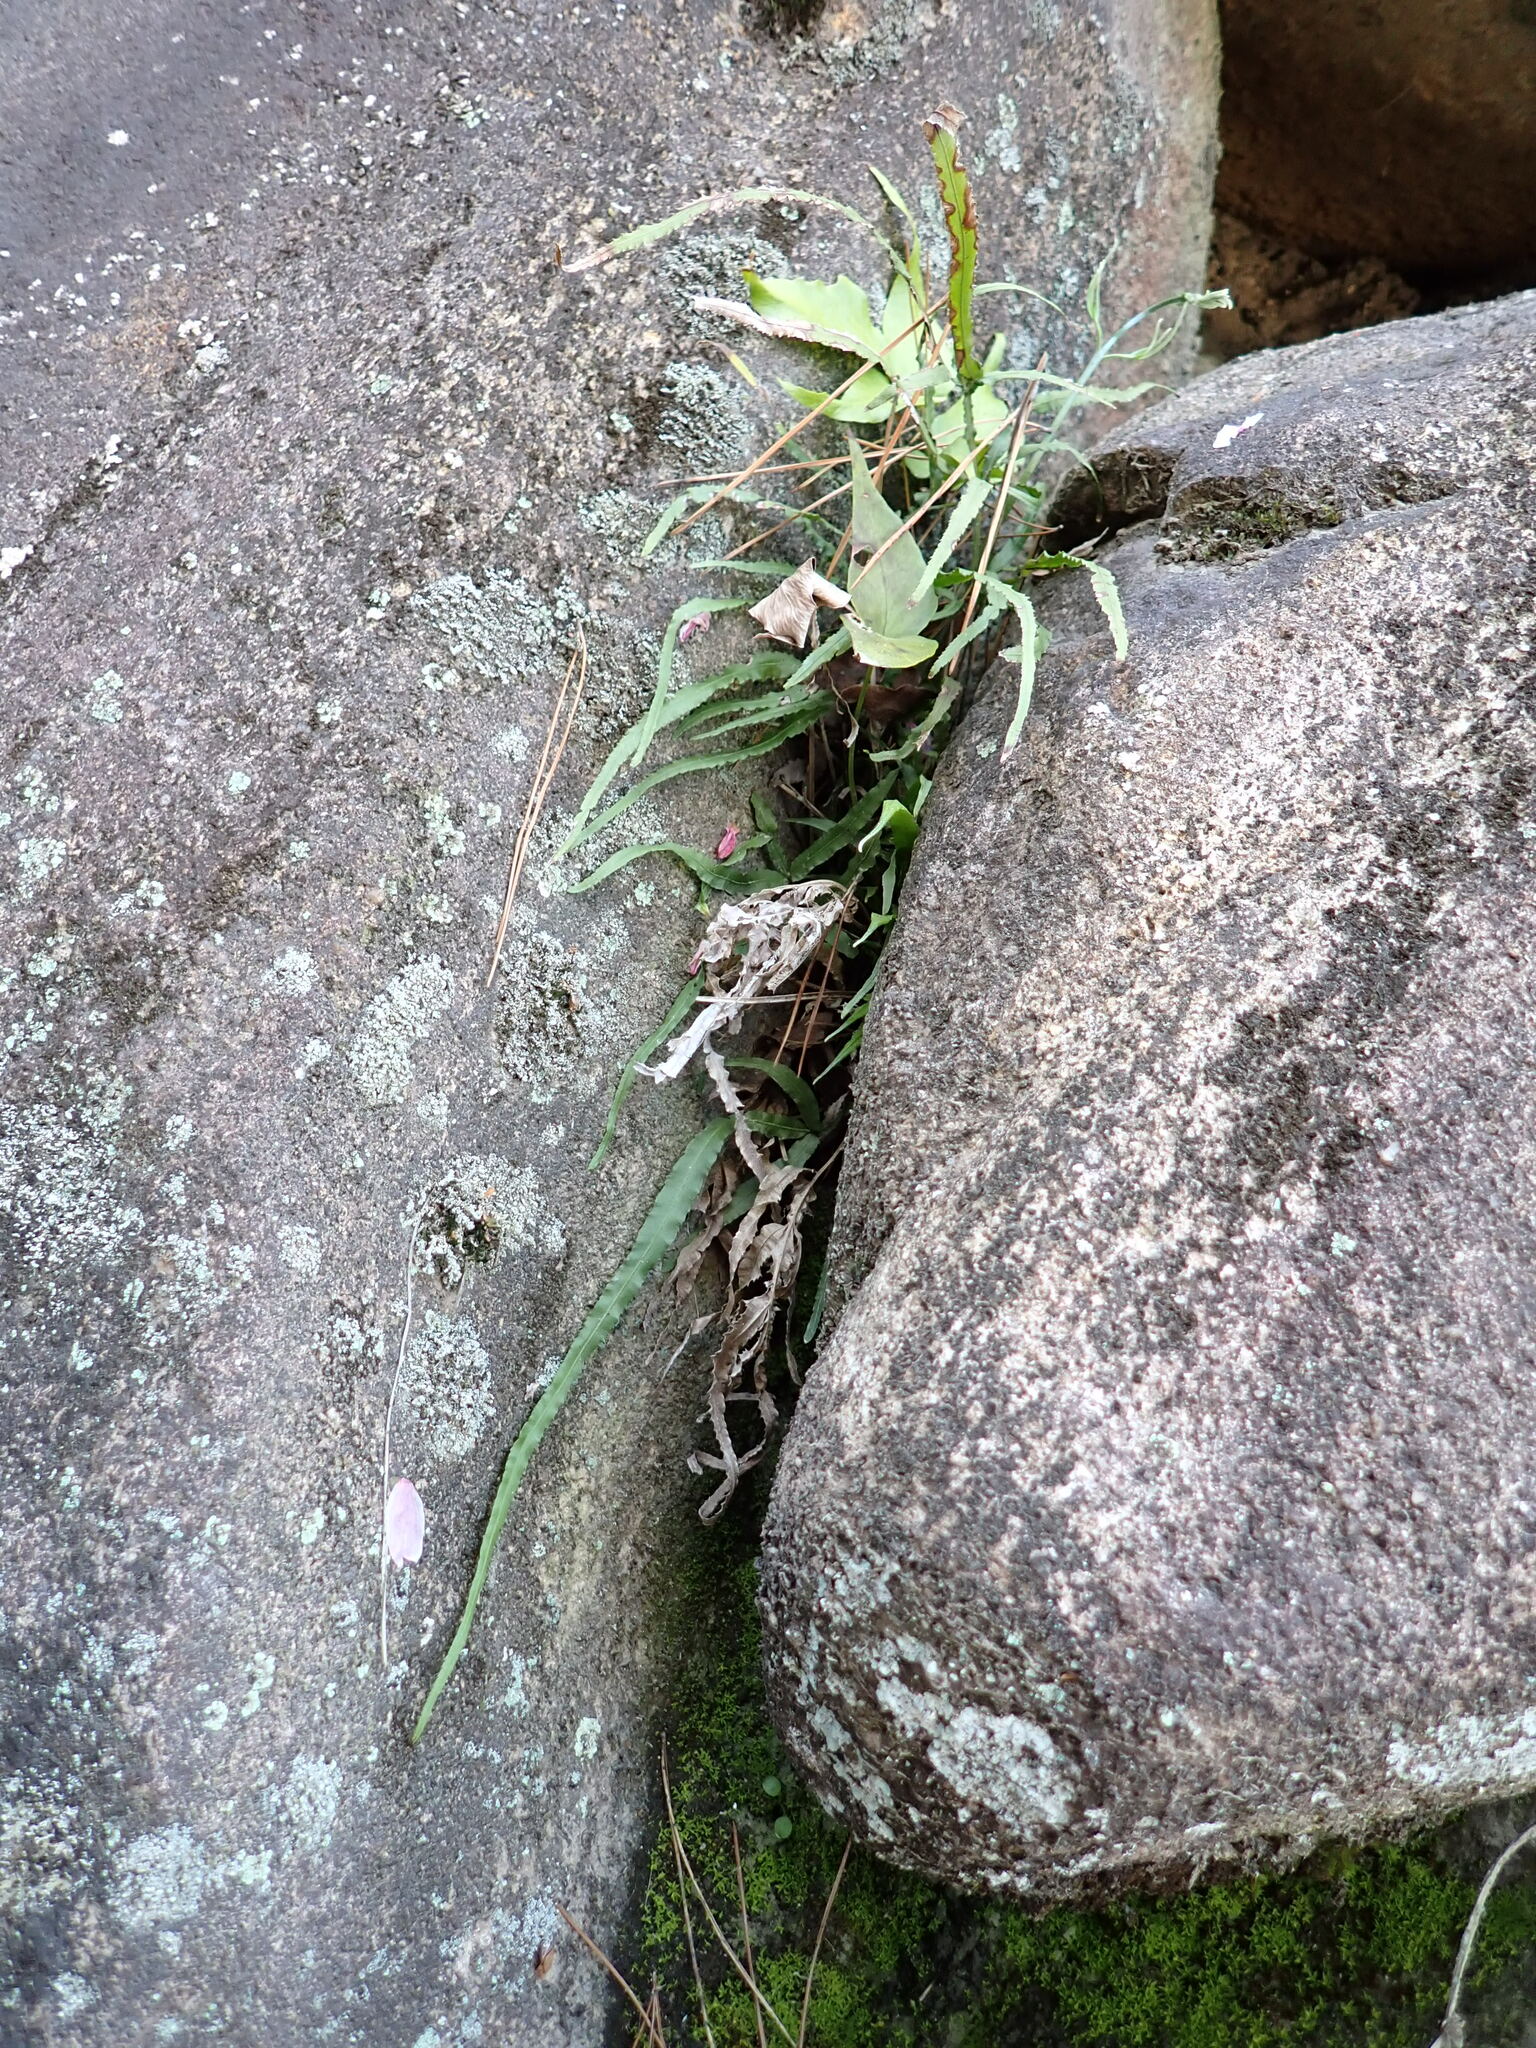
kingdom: Plantae
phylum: Tracheophyta
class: Polypodiopsida
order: Polypodiales
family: Pteridaceae
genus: Pteris
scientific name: Pteris multifida
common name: Spider brake
